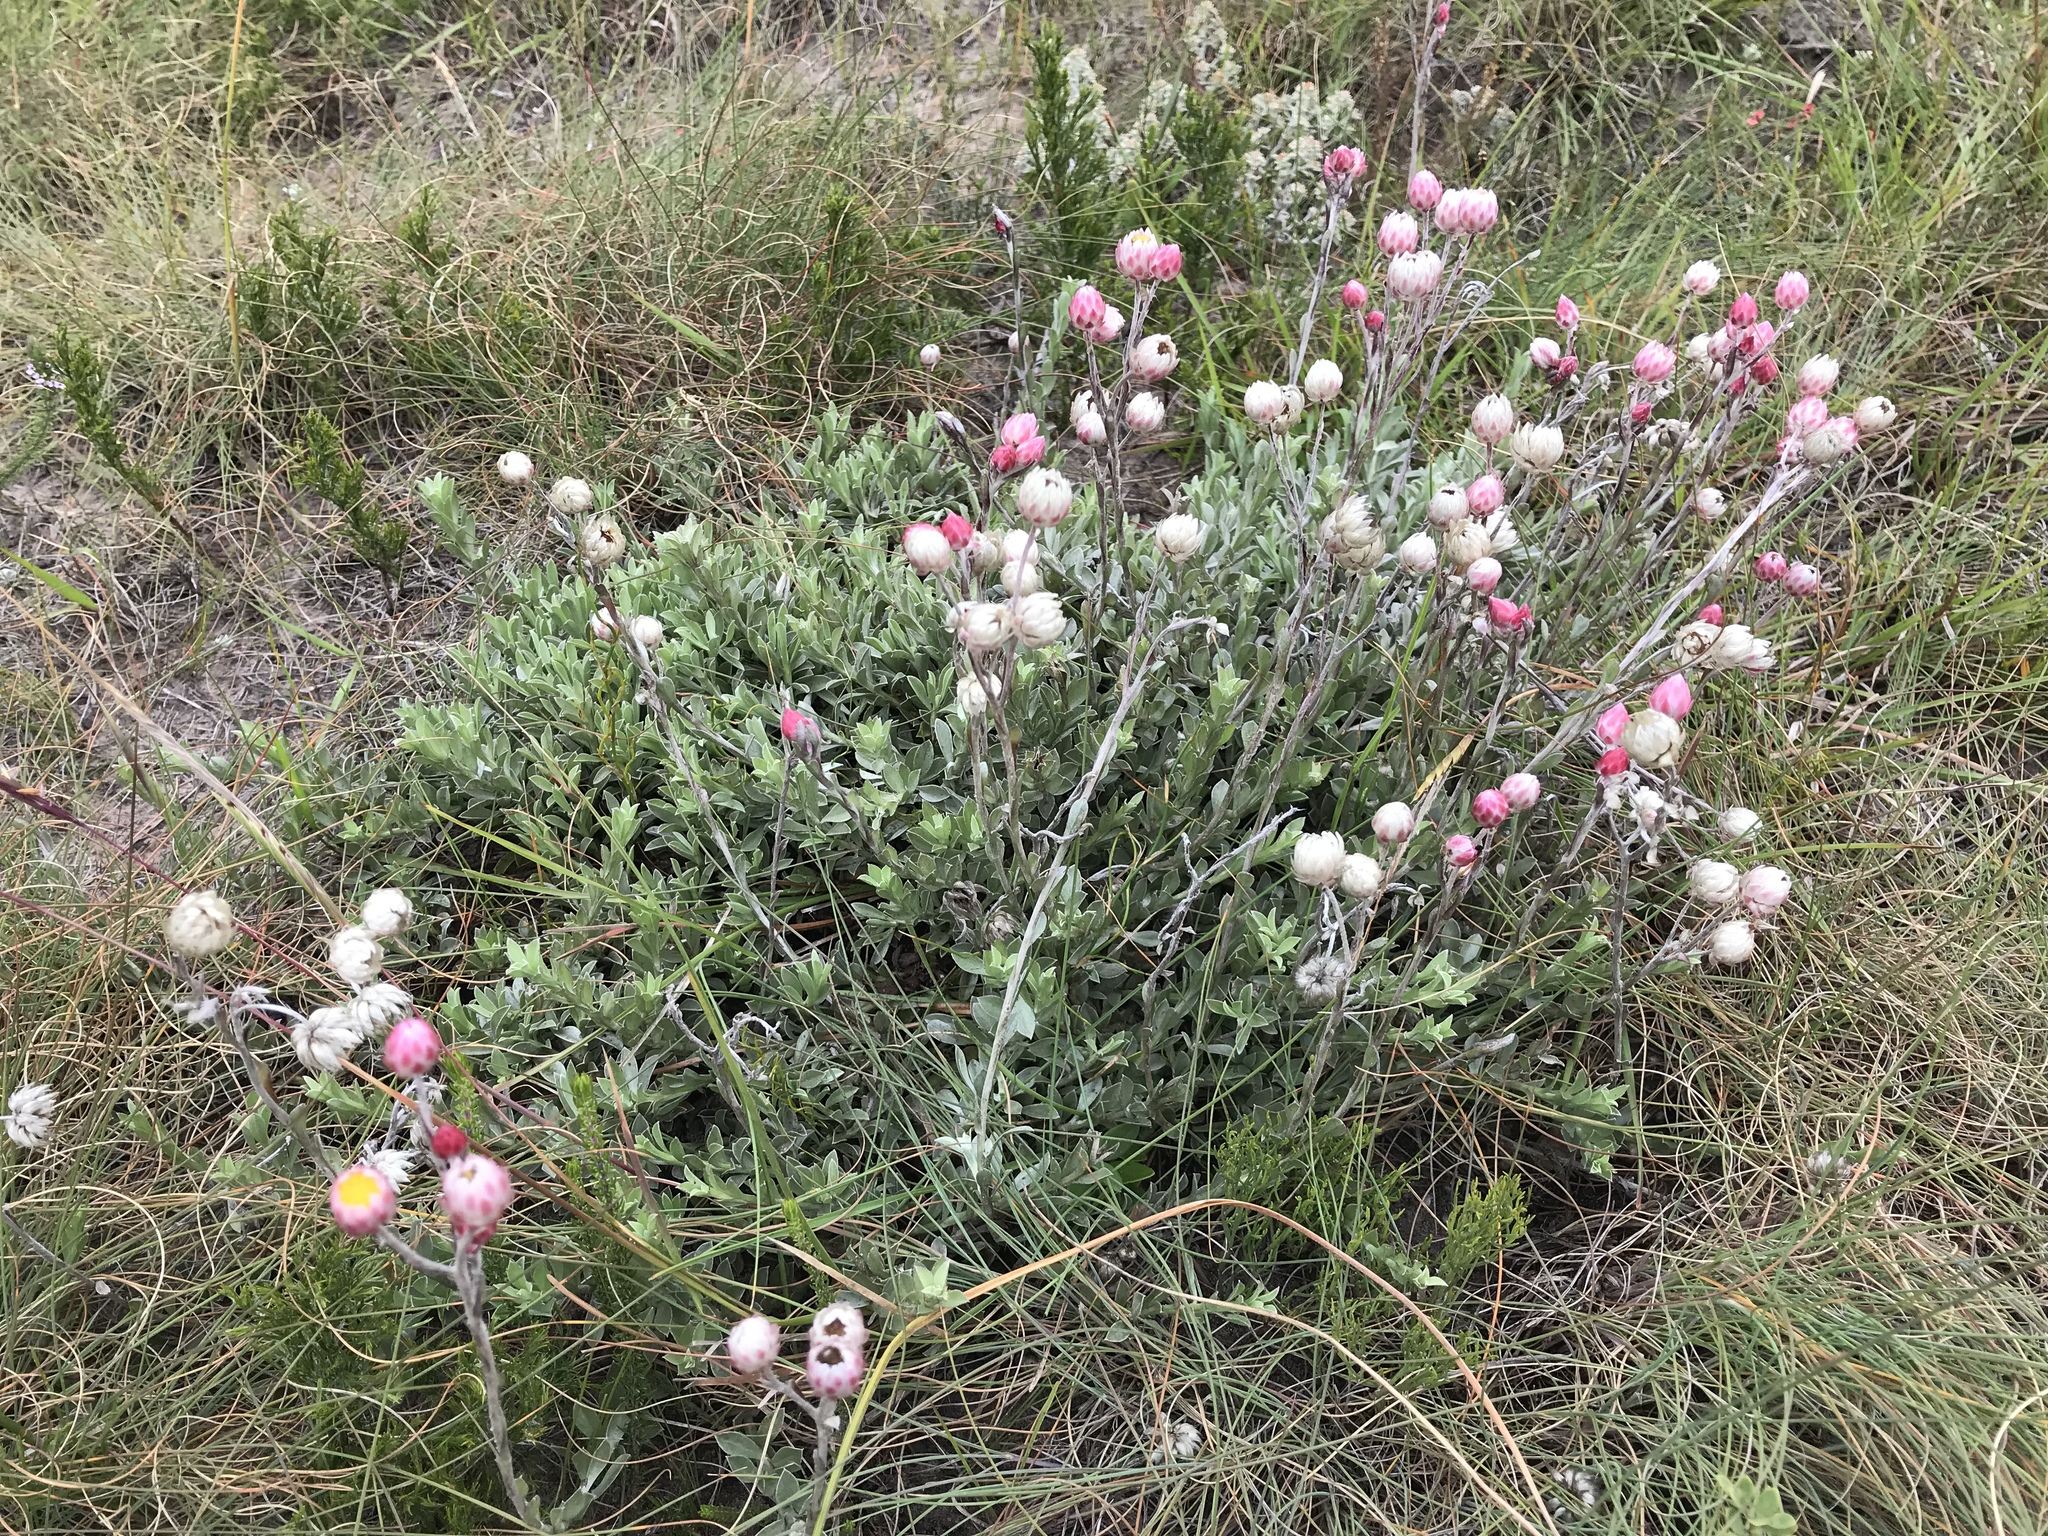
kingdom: Plantae
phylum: Tracheophyta
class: Magnoliopsida
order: Asterales
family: Asteraceae
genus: Achyranthemum
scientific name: Achyranthemum affine
